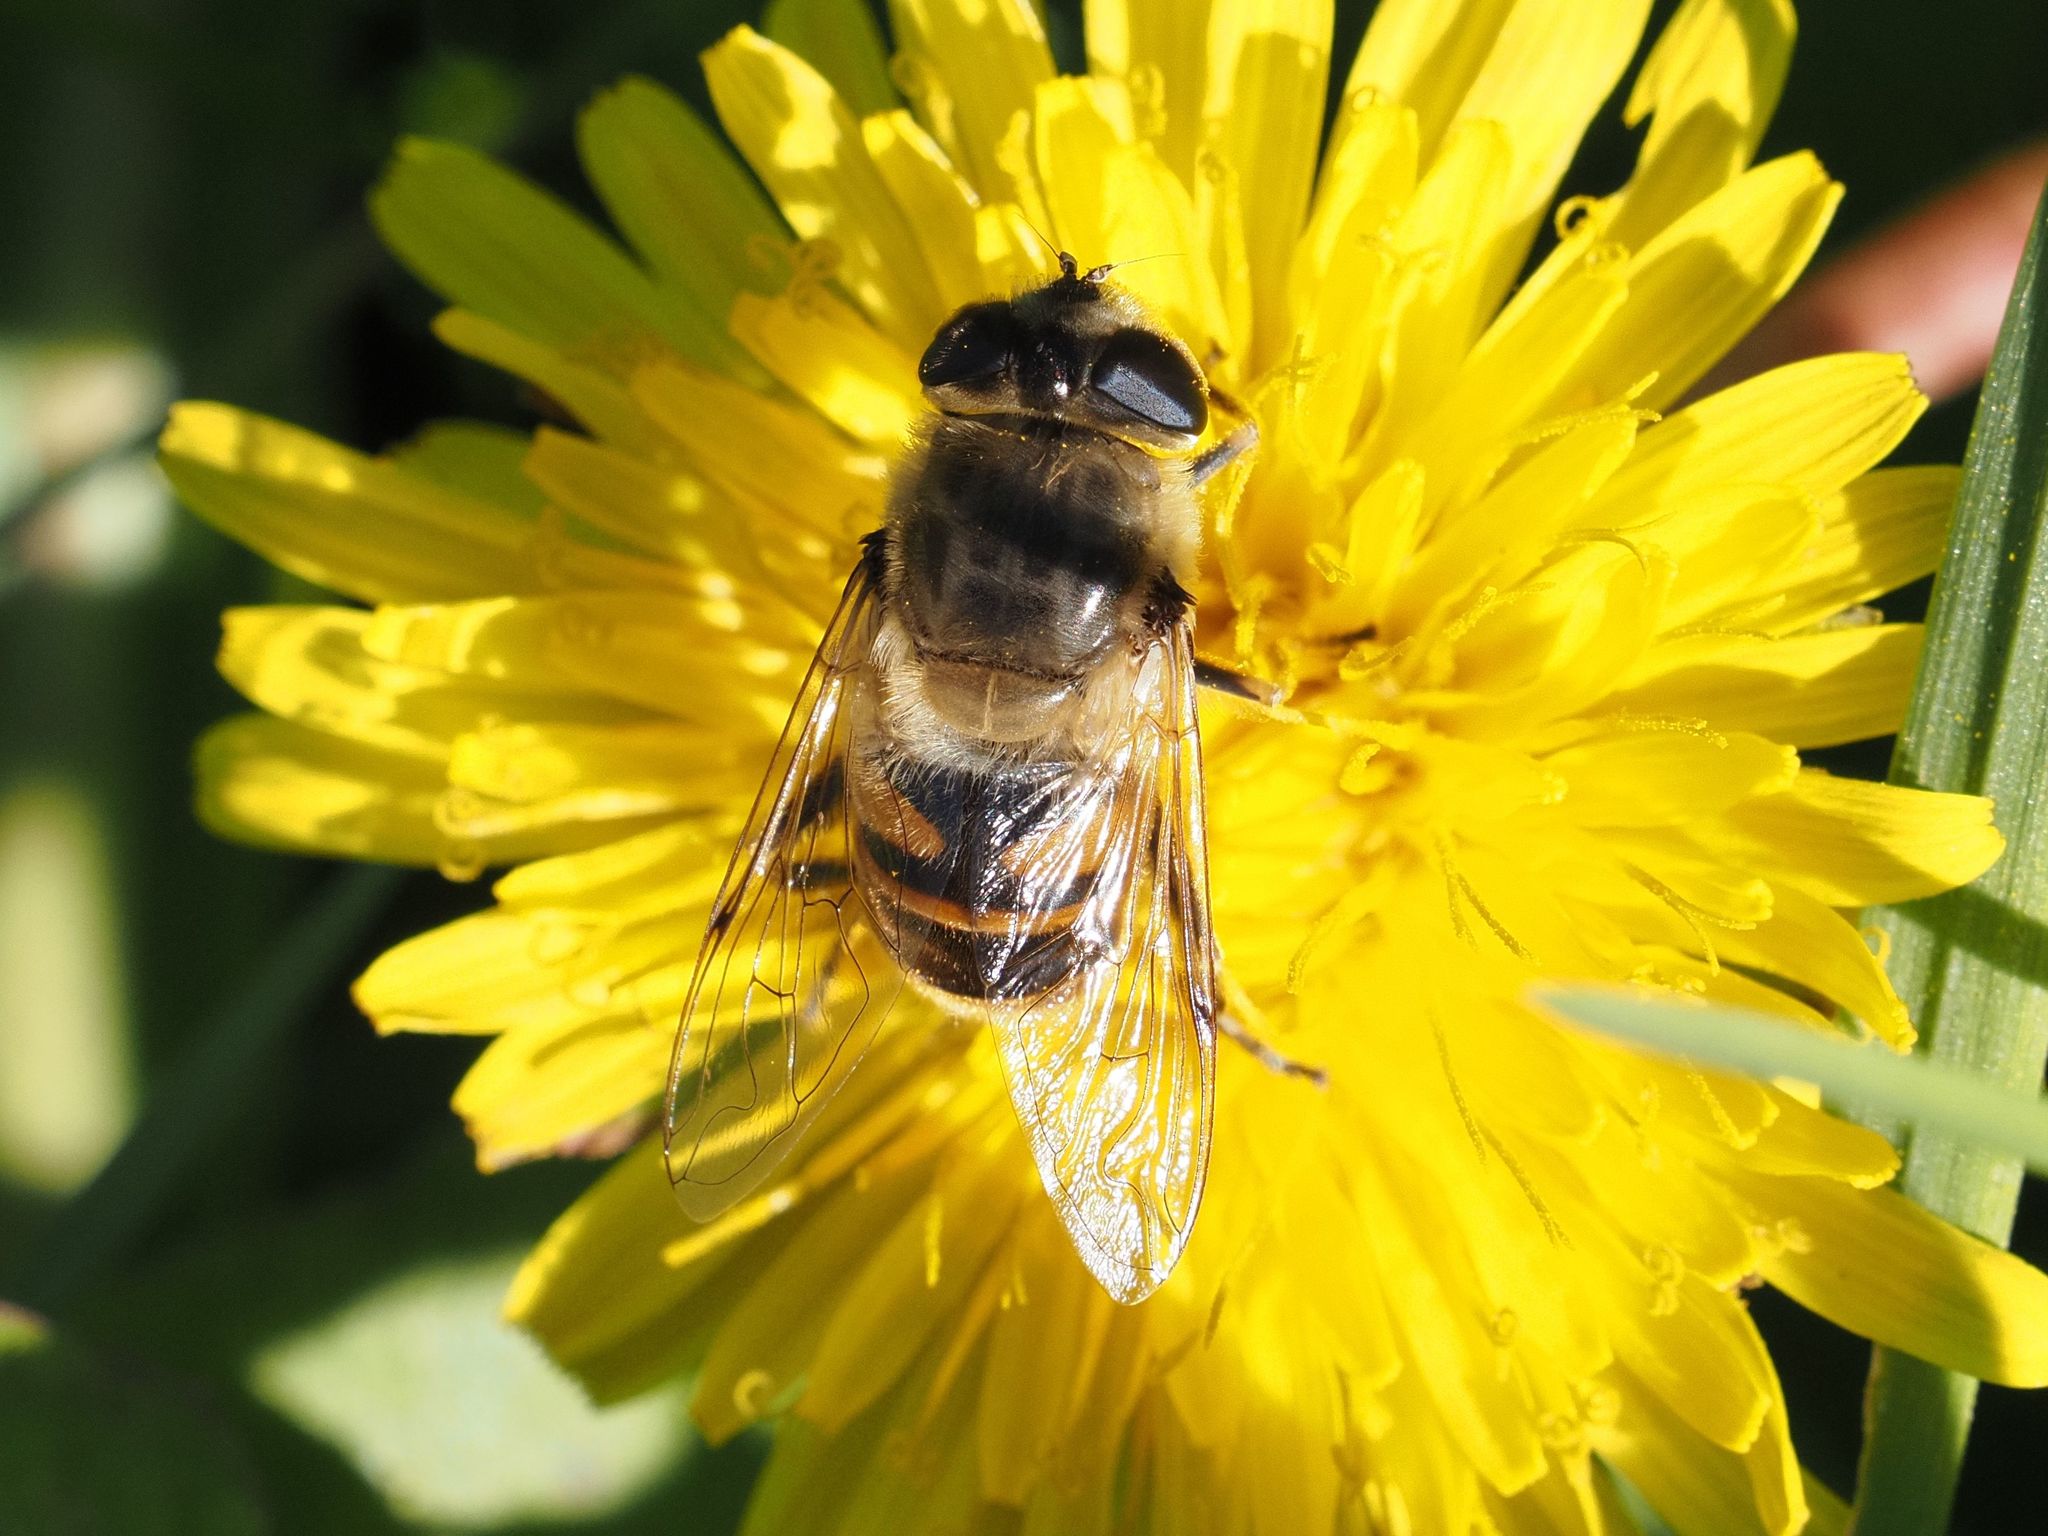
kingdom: Animalia
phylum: Arthropoda
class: Insecta
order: Diptera
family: Syrphidae
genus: Eristalis
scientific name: Eristalis tenax
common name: Drone fly
